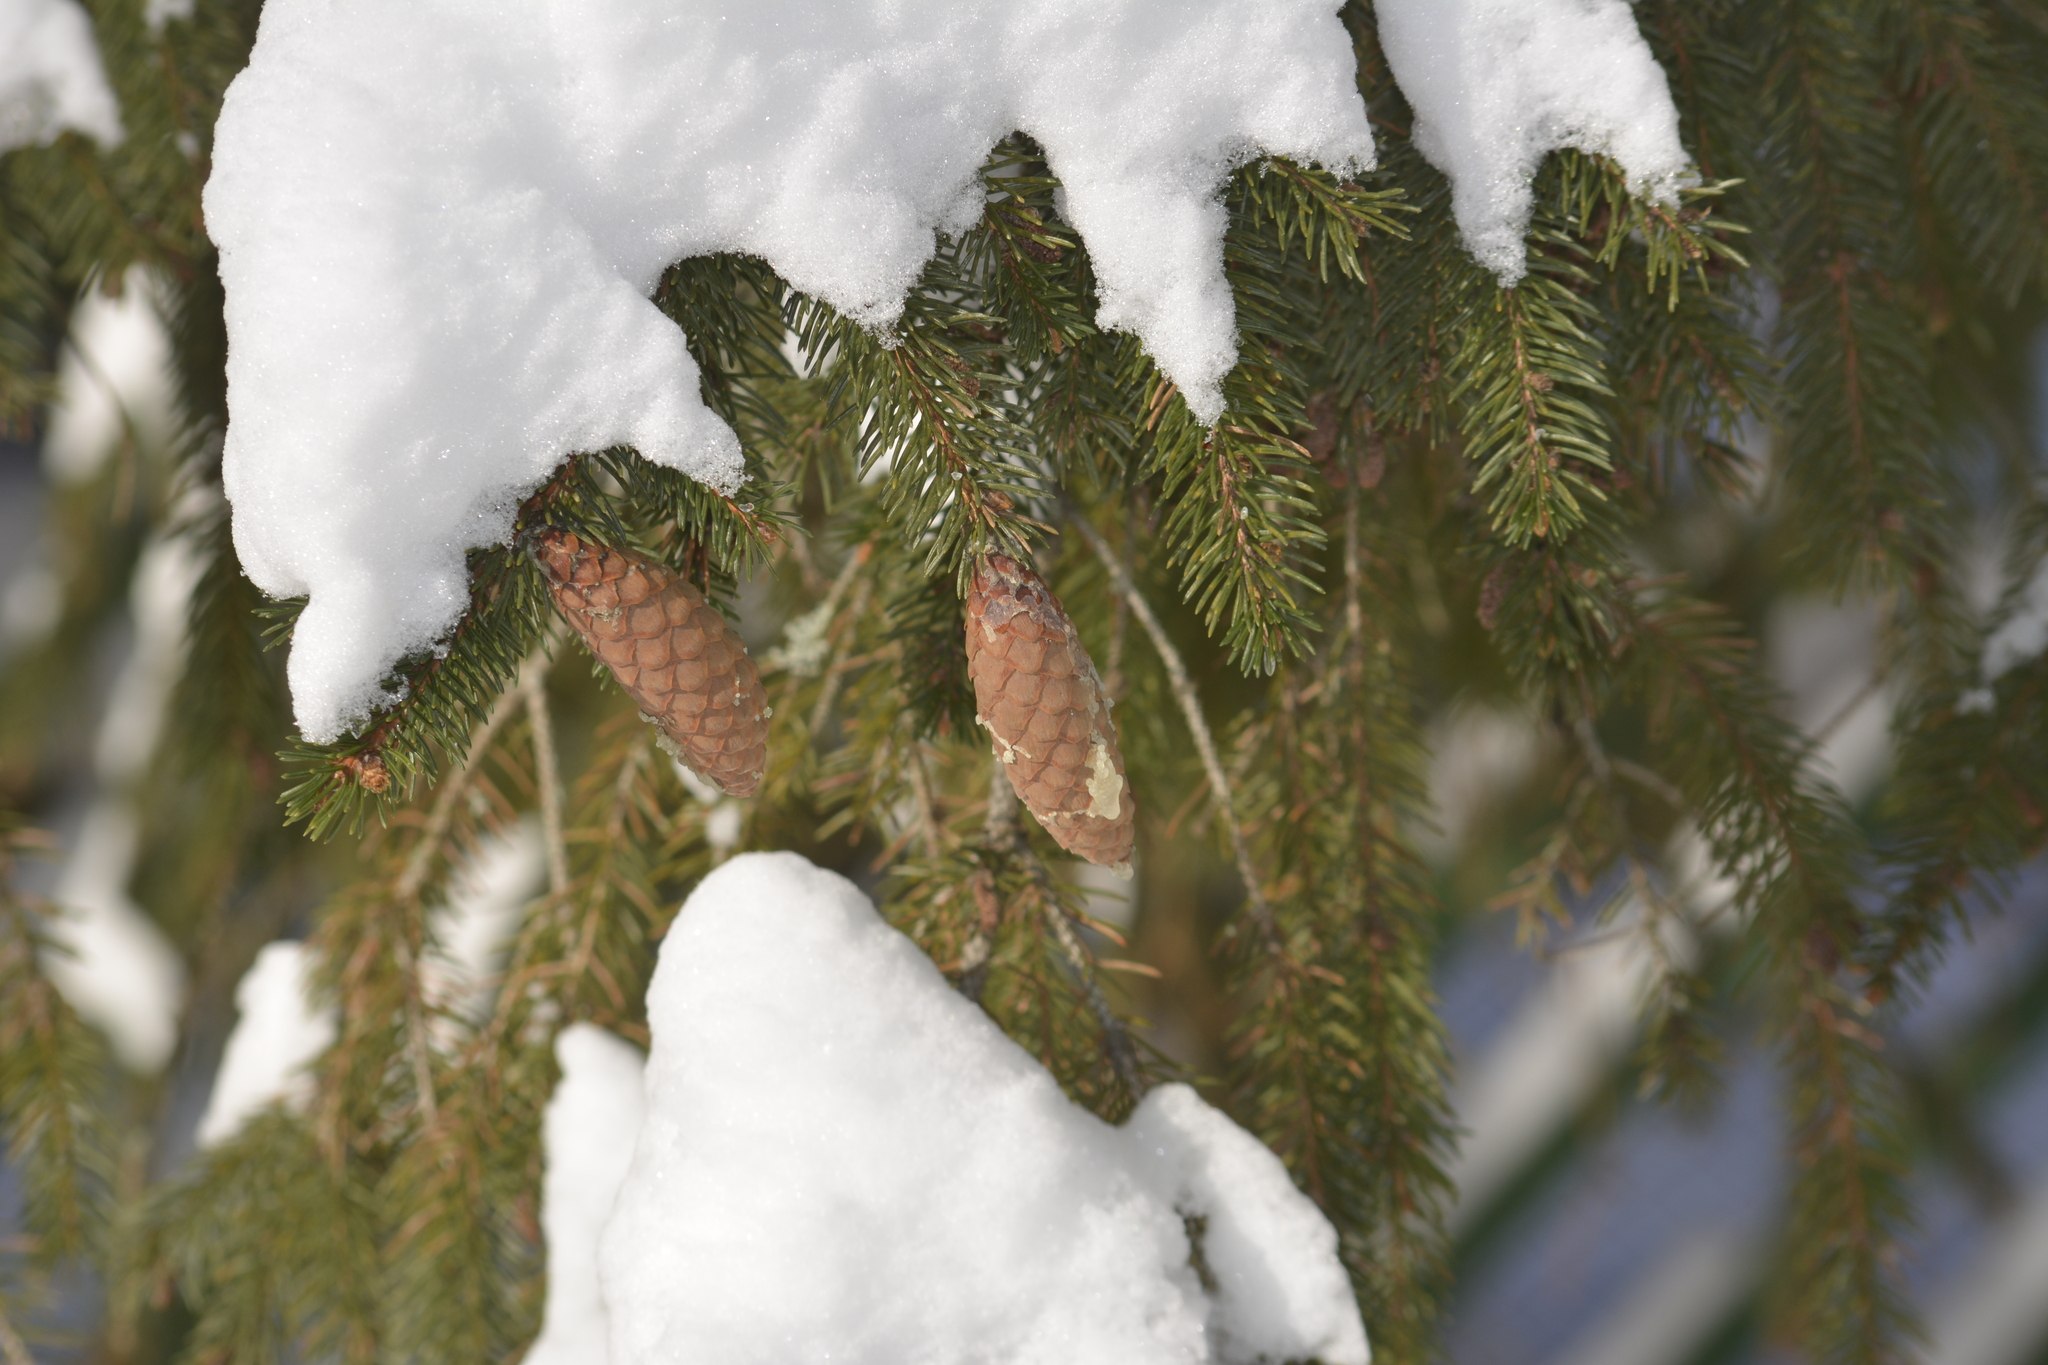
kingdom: Plantae
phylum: Tracheophyta
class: Pinopsida
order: Pinales
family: Pinaceae
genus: Picea
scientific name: Picea abies
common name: Norway spruce
